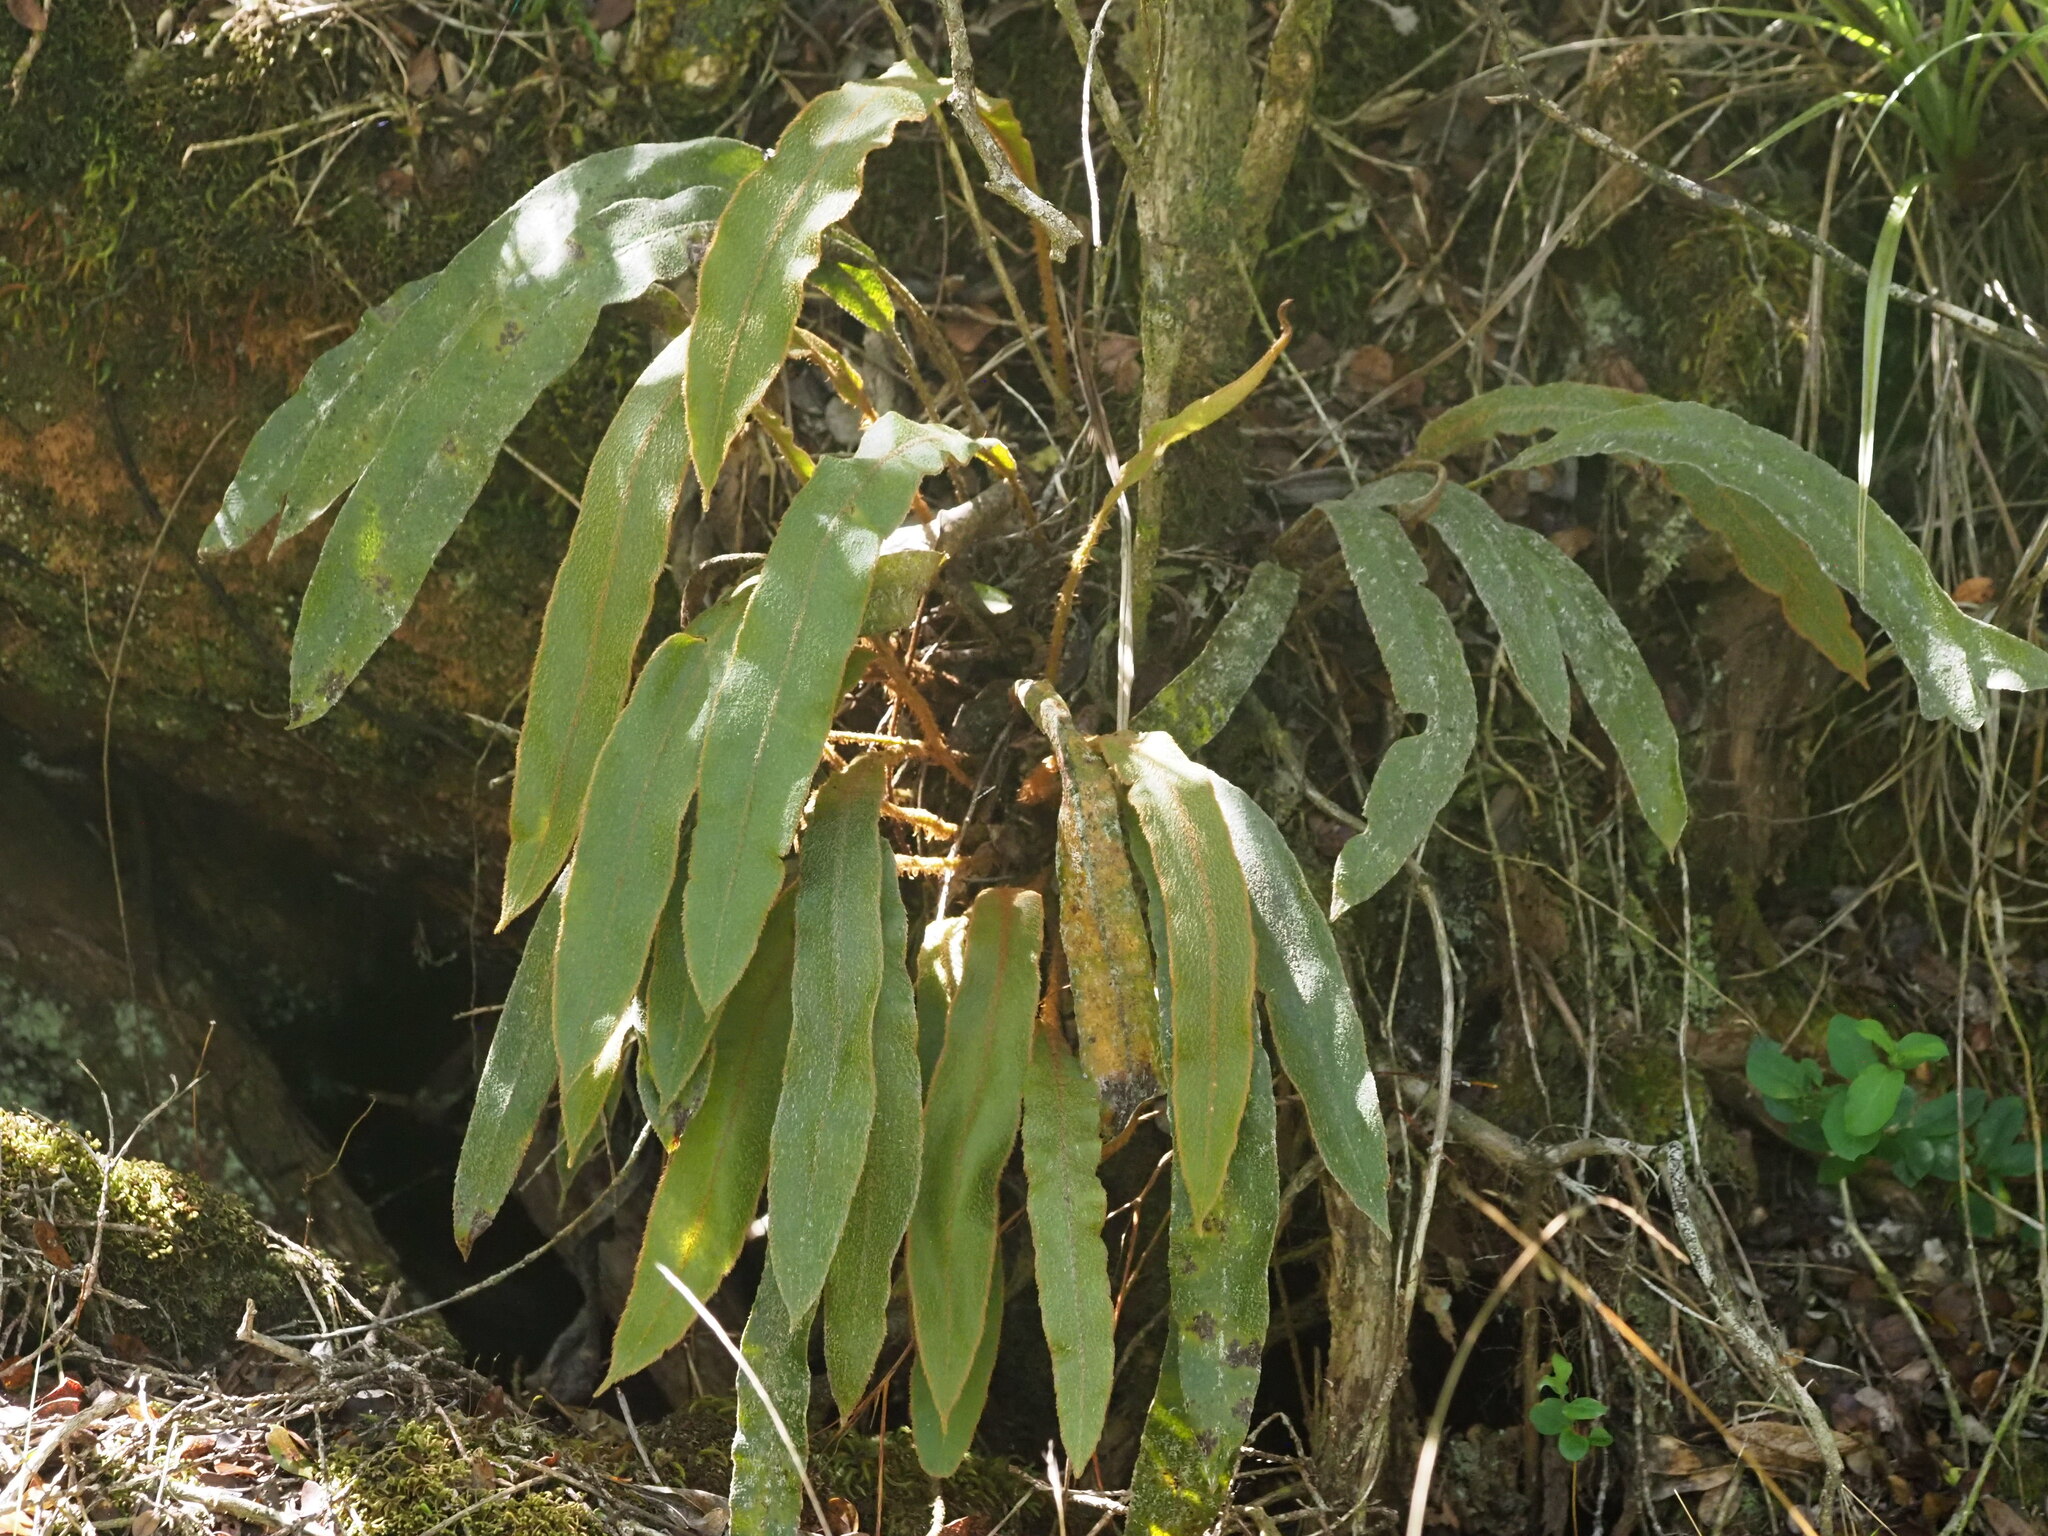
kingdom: Plantae
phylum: Tracheophyta
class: Polypodiopsida
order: Polypodiales
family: Dryopteridaceae
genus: Elaphoglossum
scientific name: Elaphoglossum paleaceum
